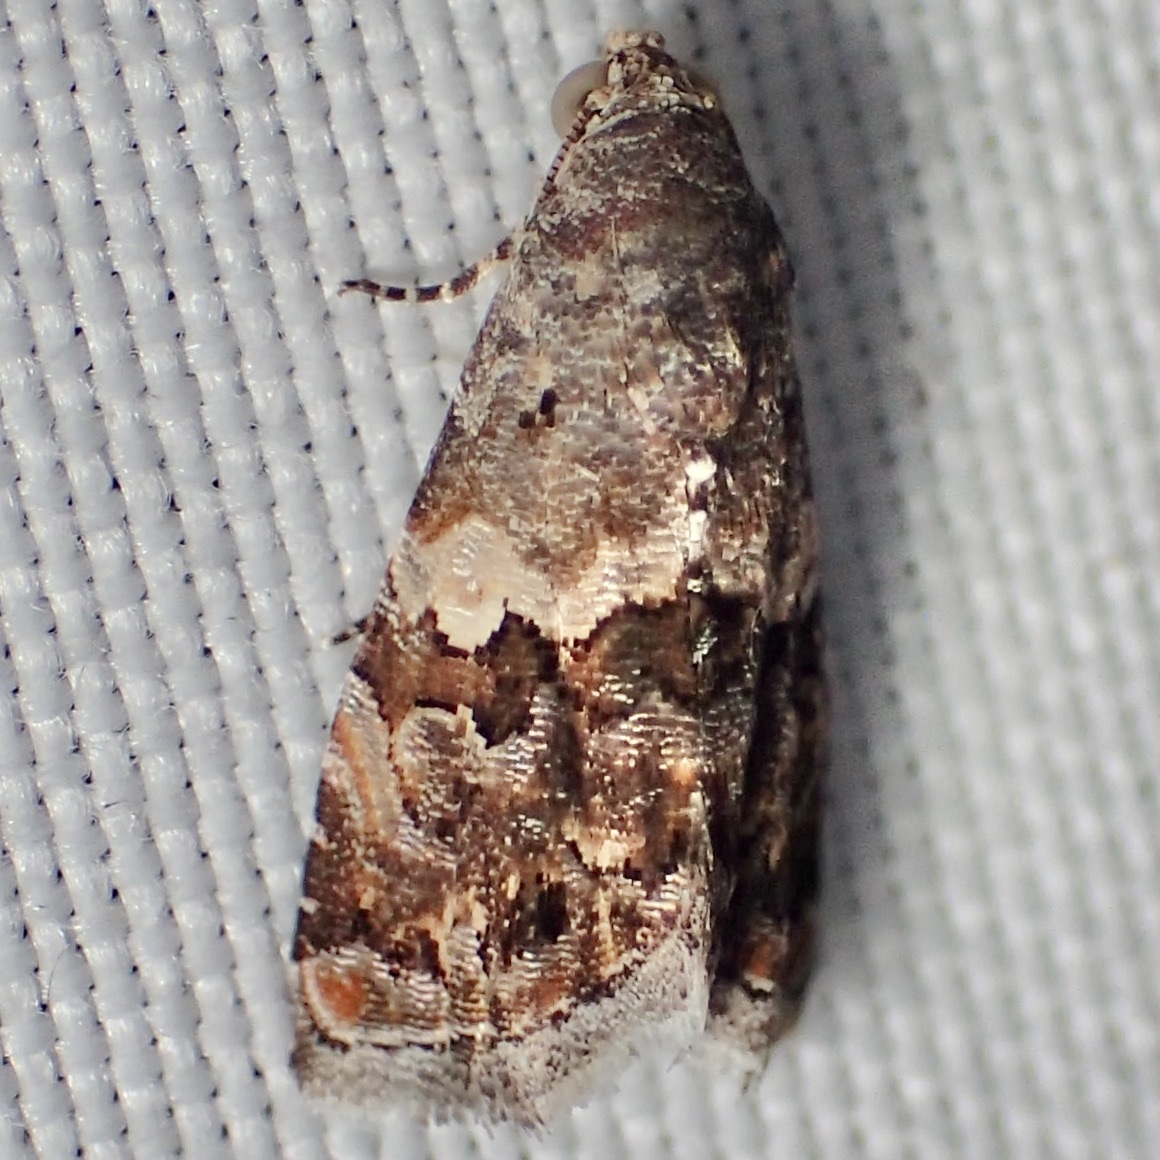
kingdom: Animalia
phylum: Arthropoda
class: Insecta
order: Lepidoptera
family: Noctuidae
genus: Tripudia
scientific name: Tripudia luxuriosa
